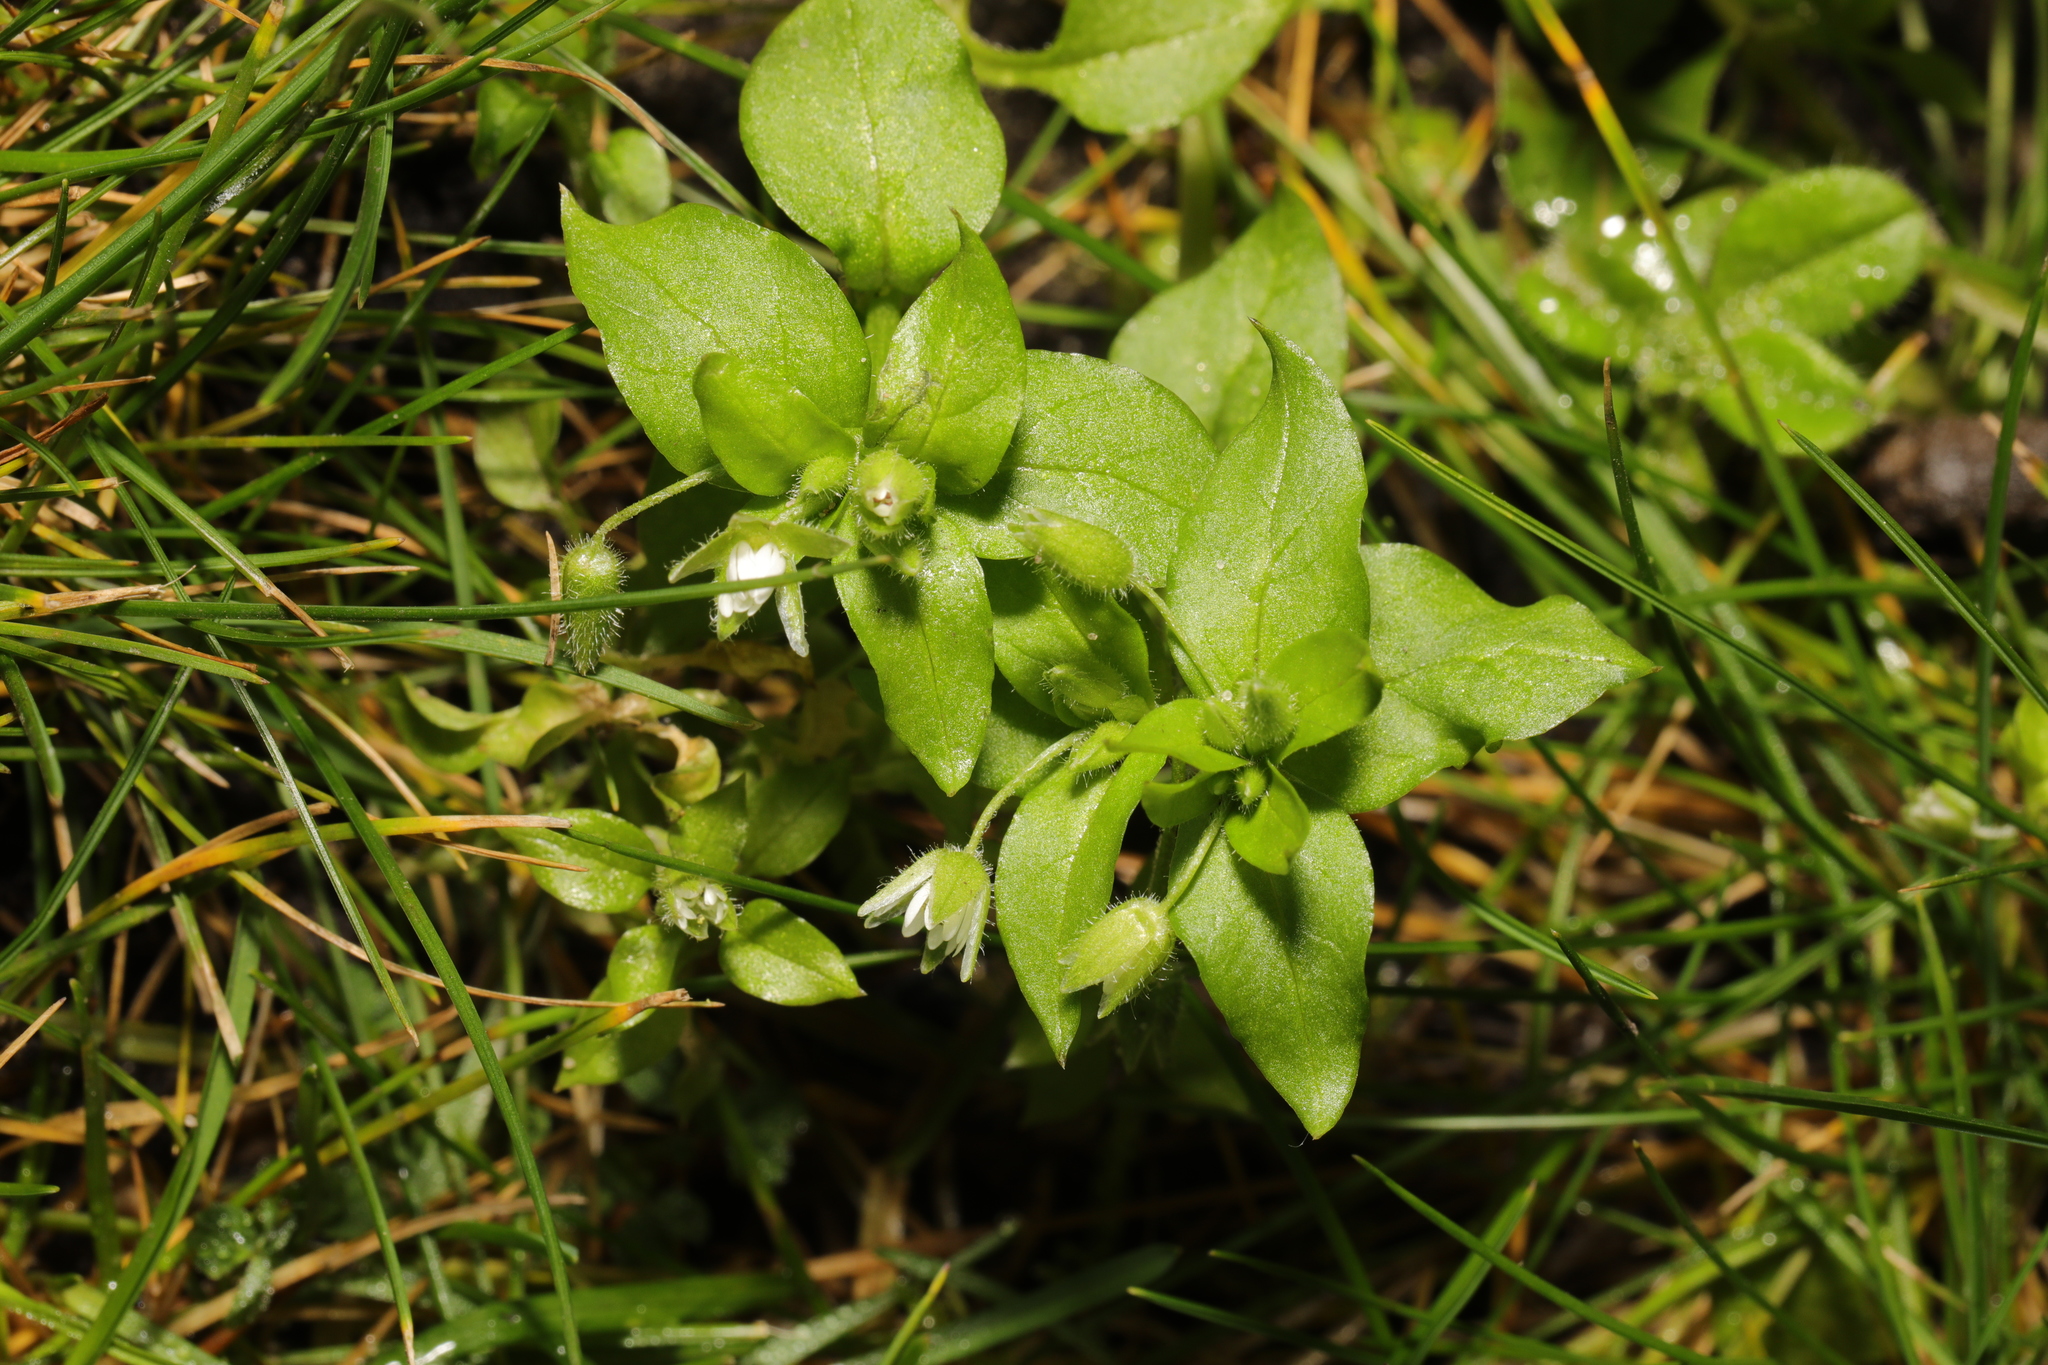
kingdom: Plantae
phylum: Tracheophyta
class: Magnoliopsida
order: Caryophyllales
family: Caryophyllaceae
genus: Stellaria
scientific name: Stellaria media
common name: Common chickweed
